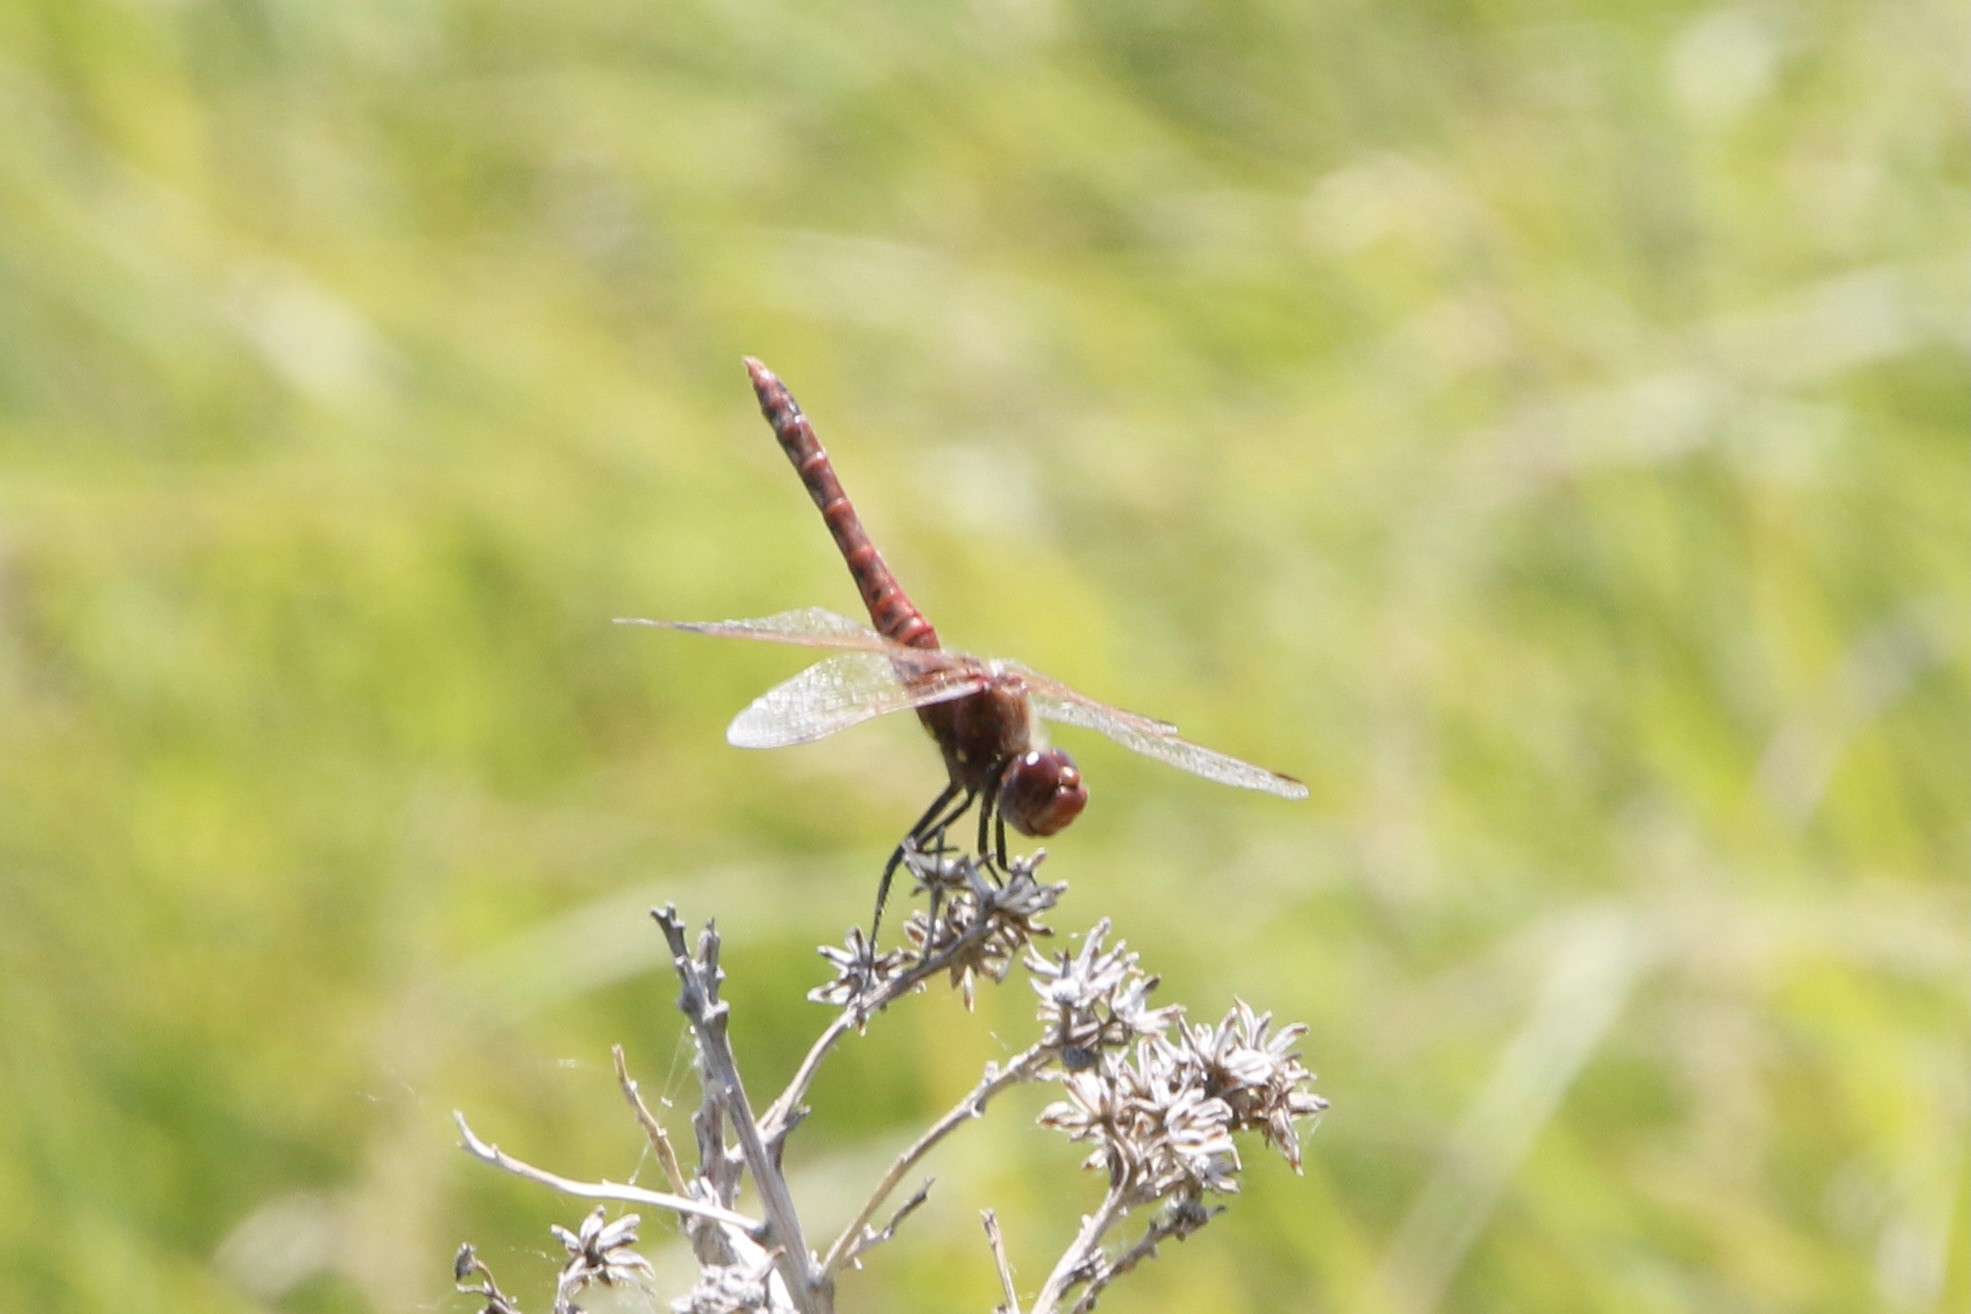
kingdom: Animalia
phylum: Arthropoda
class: Insecta
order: Odonata
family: Libellulidae
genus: Sympetrum
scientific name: Sympetrum corruptum
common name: Variegated meadowhawk
